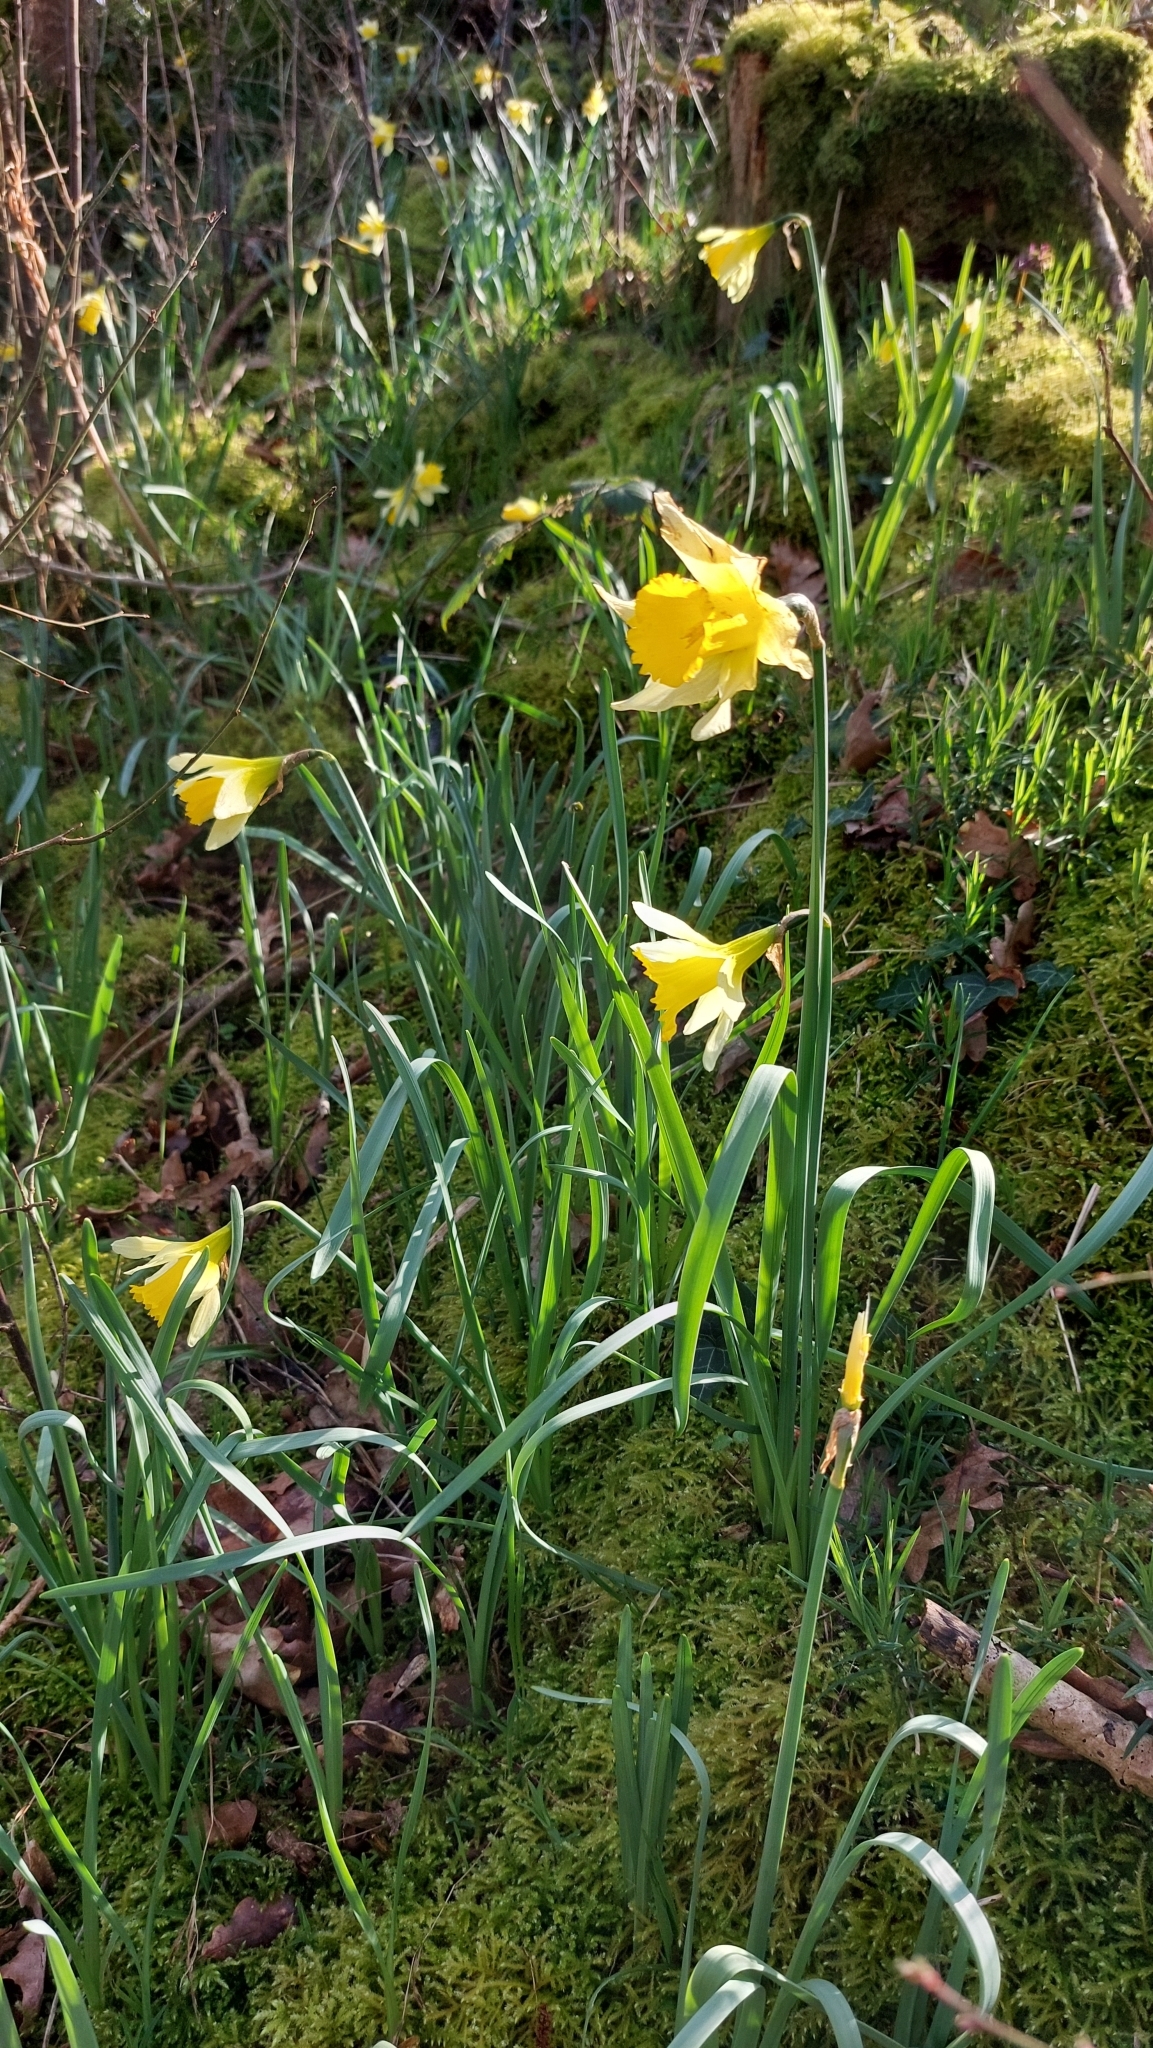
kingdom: Plantae
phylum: Tracheophyta
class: Liliopsida
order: Asparagales
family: Amaryllidaceae
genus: Narcissus
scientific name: Narcissus pseudonarcissus
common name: Daffodil
